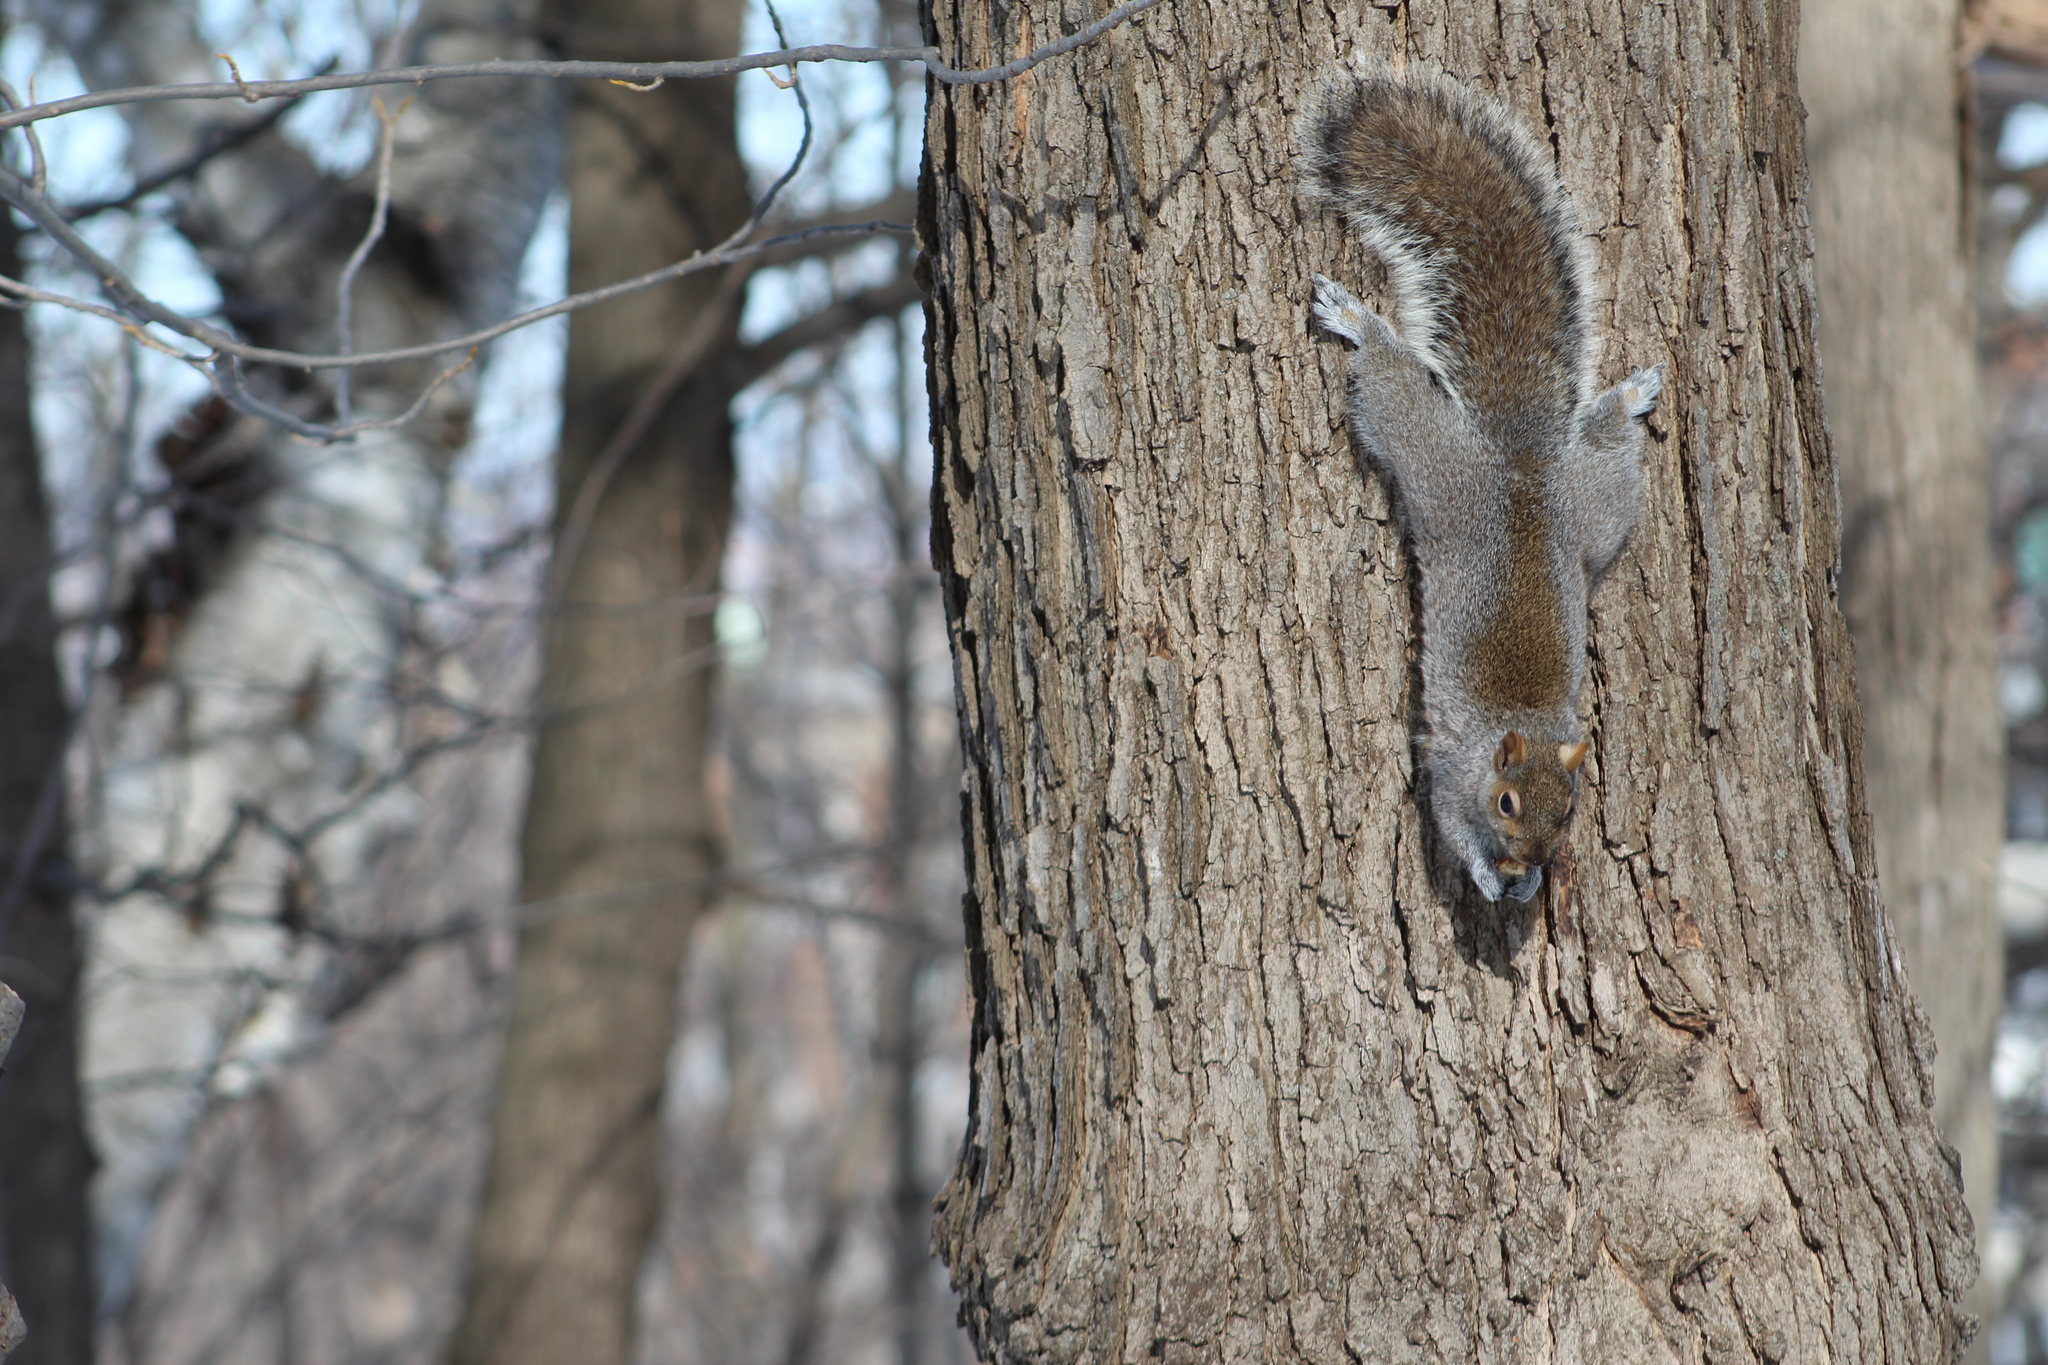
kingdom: Animalia
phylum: Chordata
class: Mammalia
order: Rodentia
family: Sciuridae
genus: Sciurus
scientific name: Sciurus carolinensis
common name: Eastern gray squirrel
